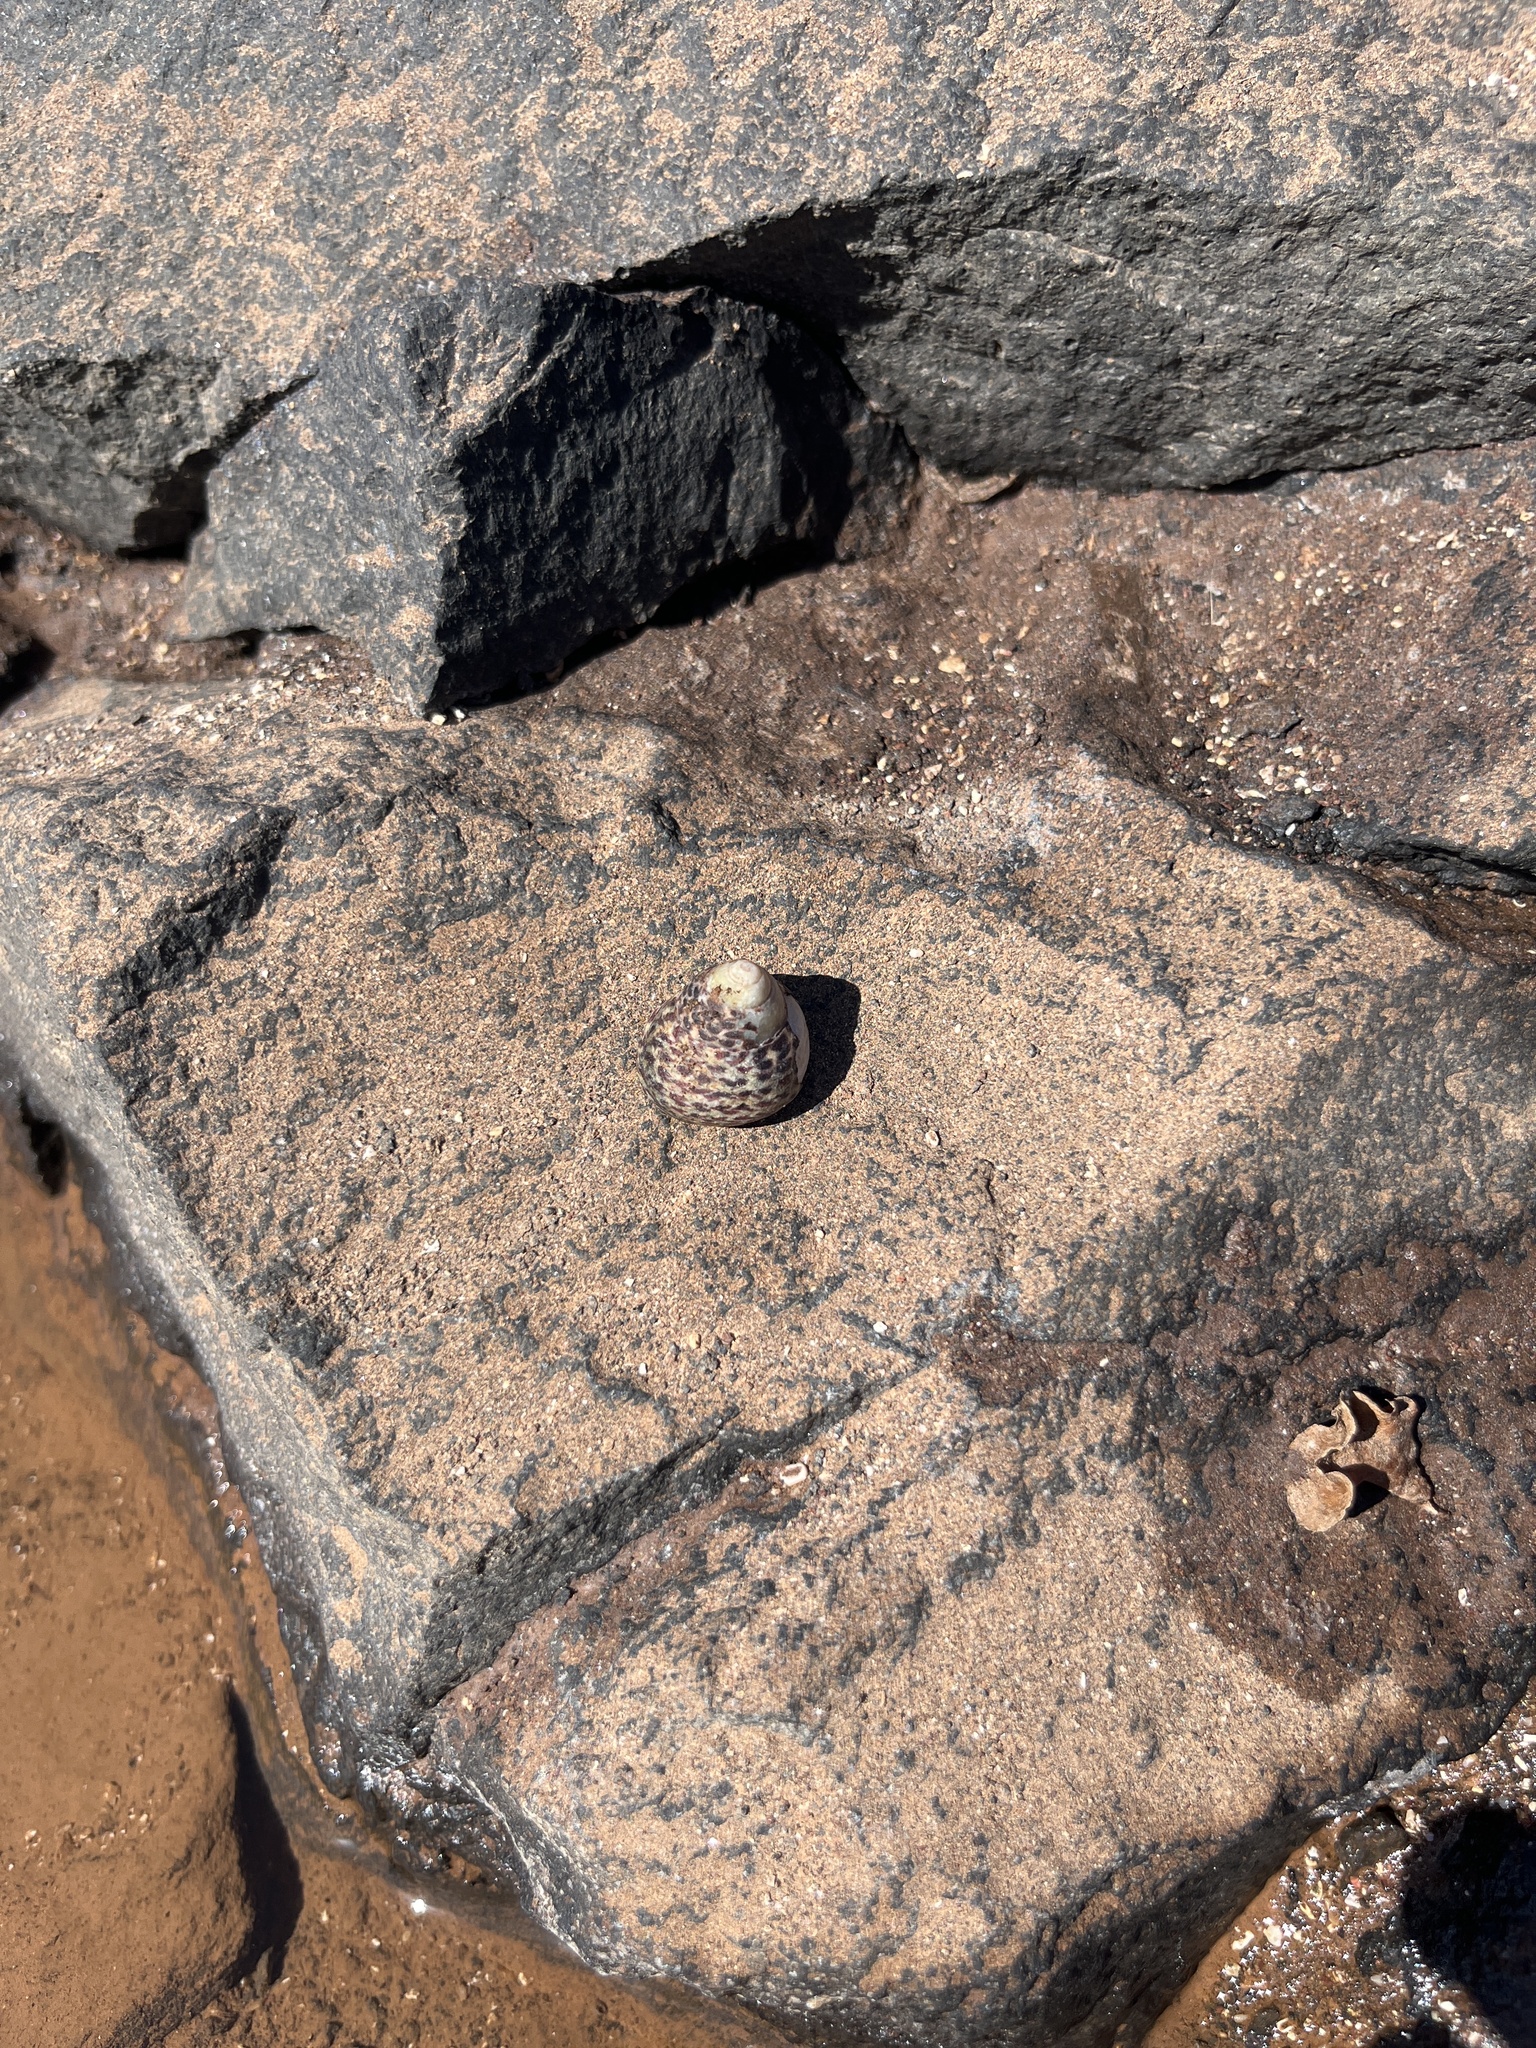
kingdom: Animalia
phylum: Mollusca
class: Gastropoda
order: Trochida
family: Trochidae
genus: Phorcus
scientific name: Phorcus sauciatus
